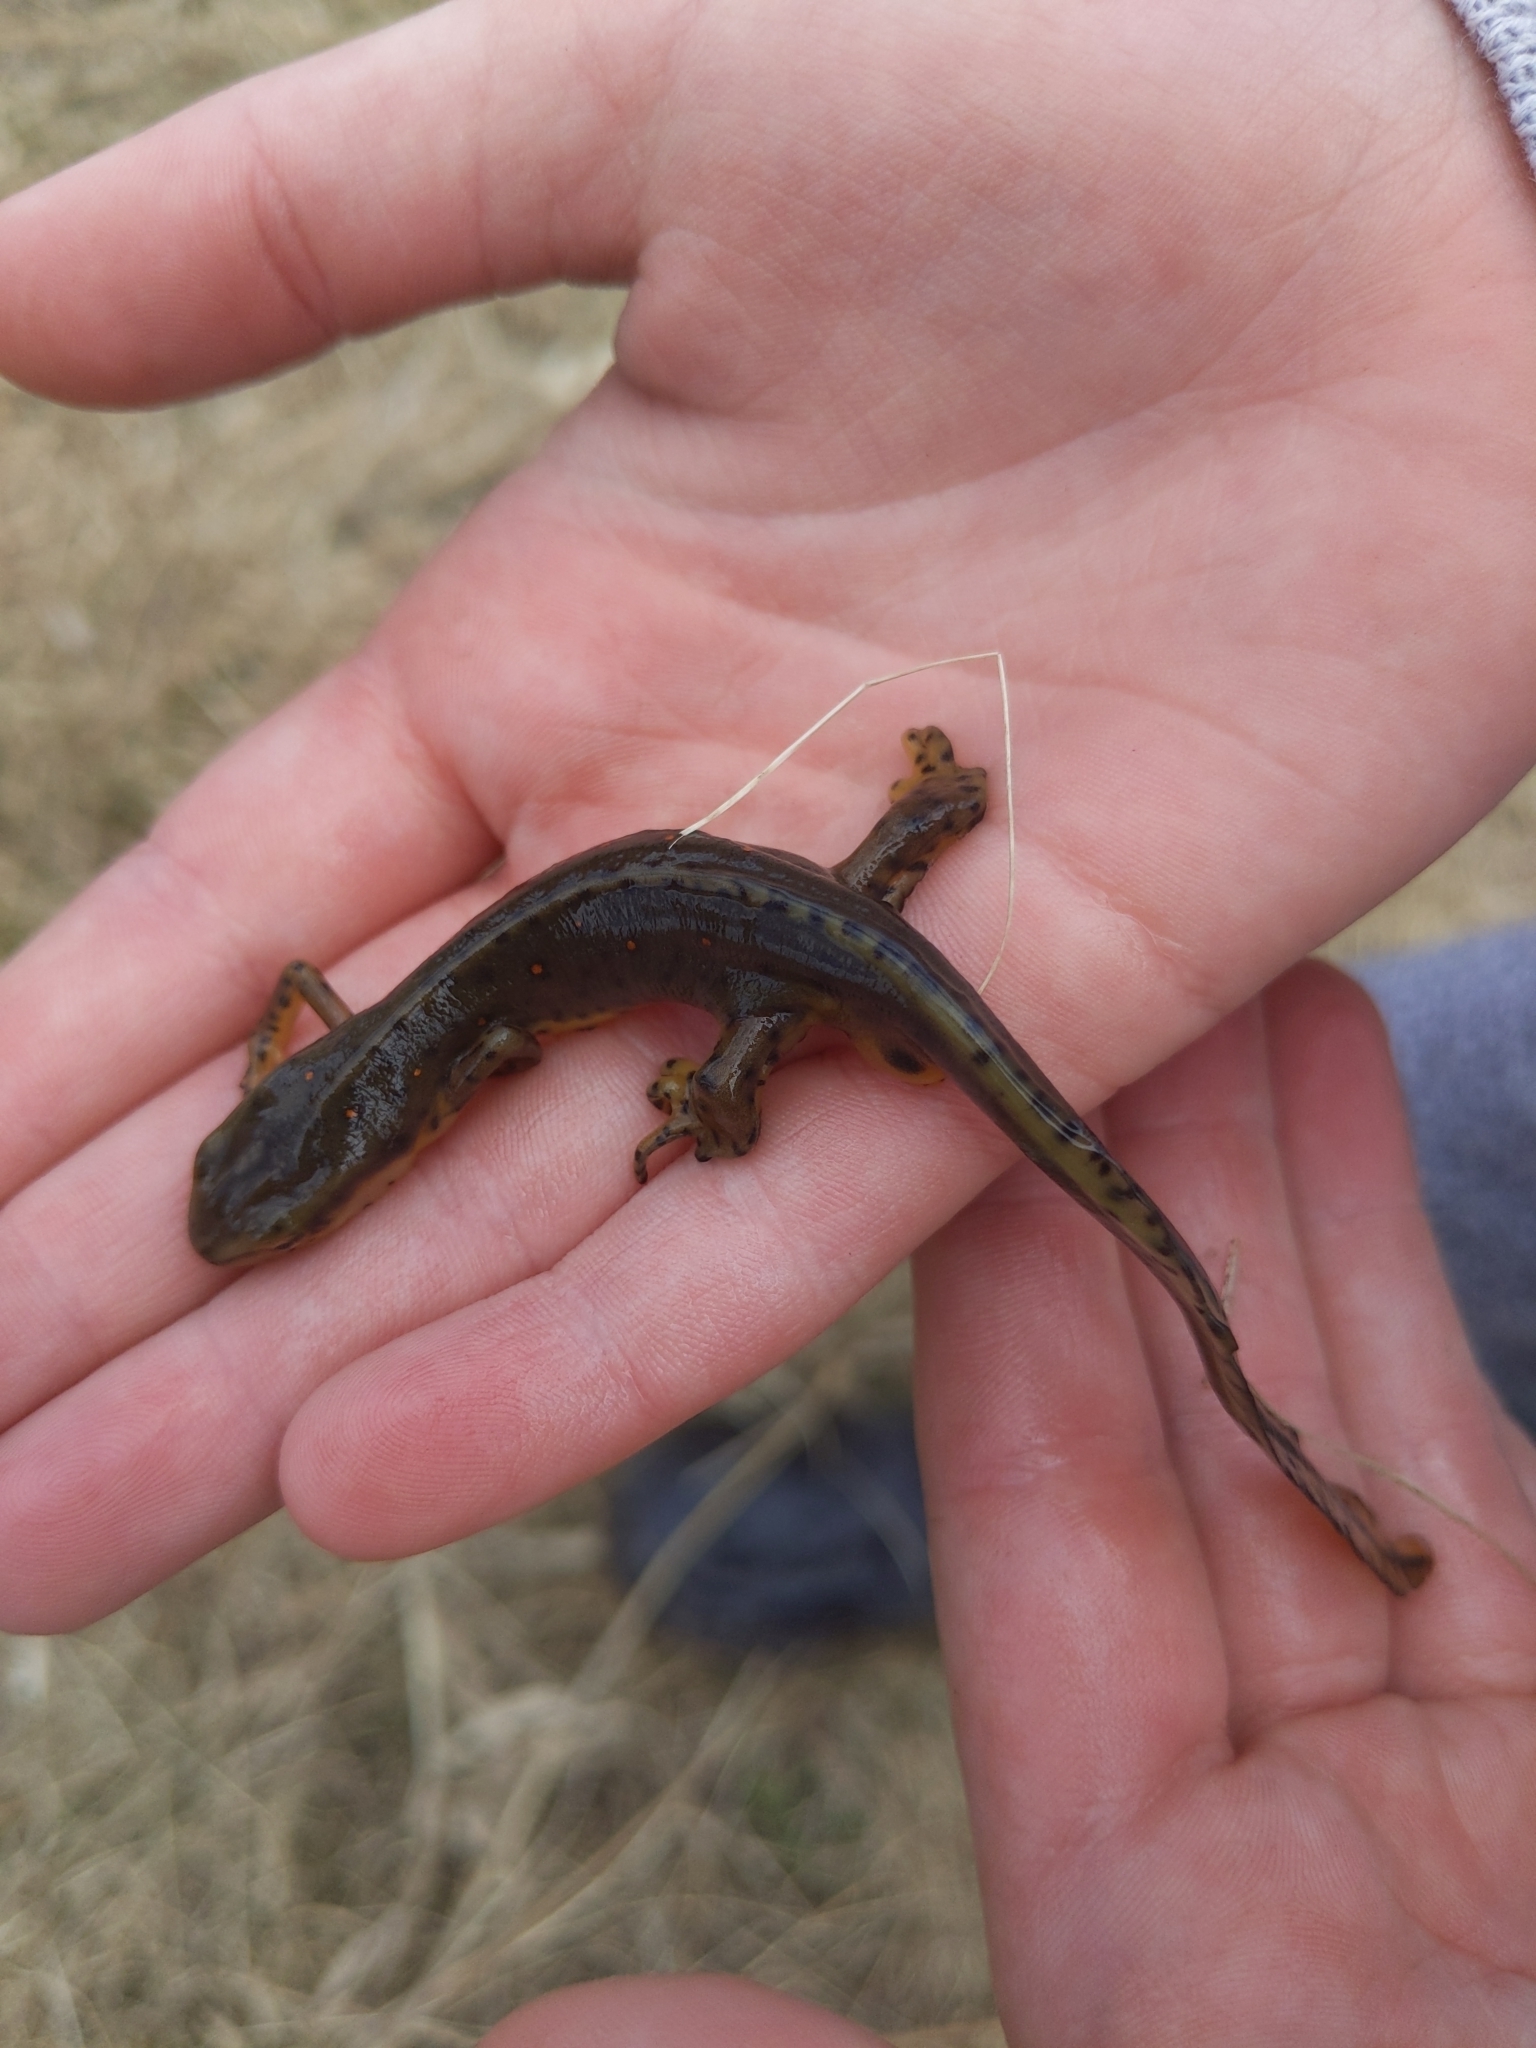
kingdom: Animalia
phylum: Chordata
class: Amphibia
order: Caudata
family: Salamandridae
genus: Notophthalmus
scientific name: Notophthalmus viridescens
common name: Eastern newt
